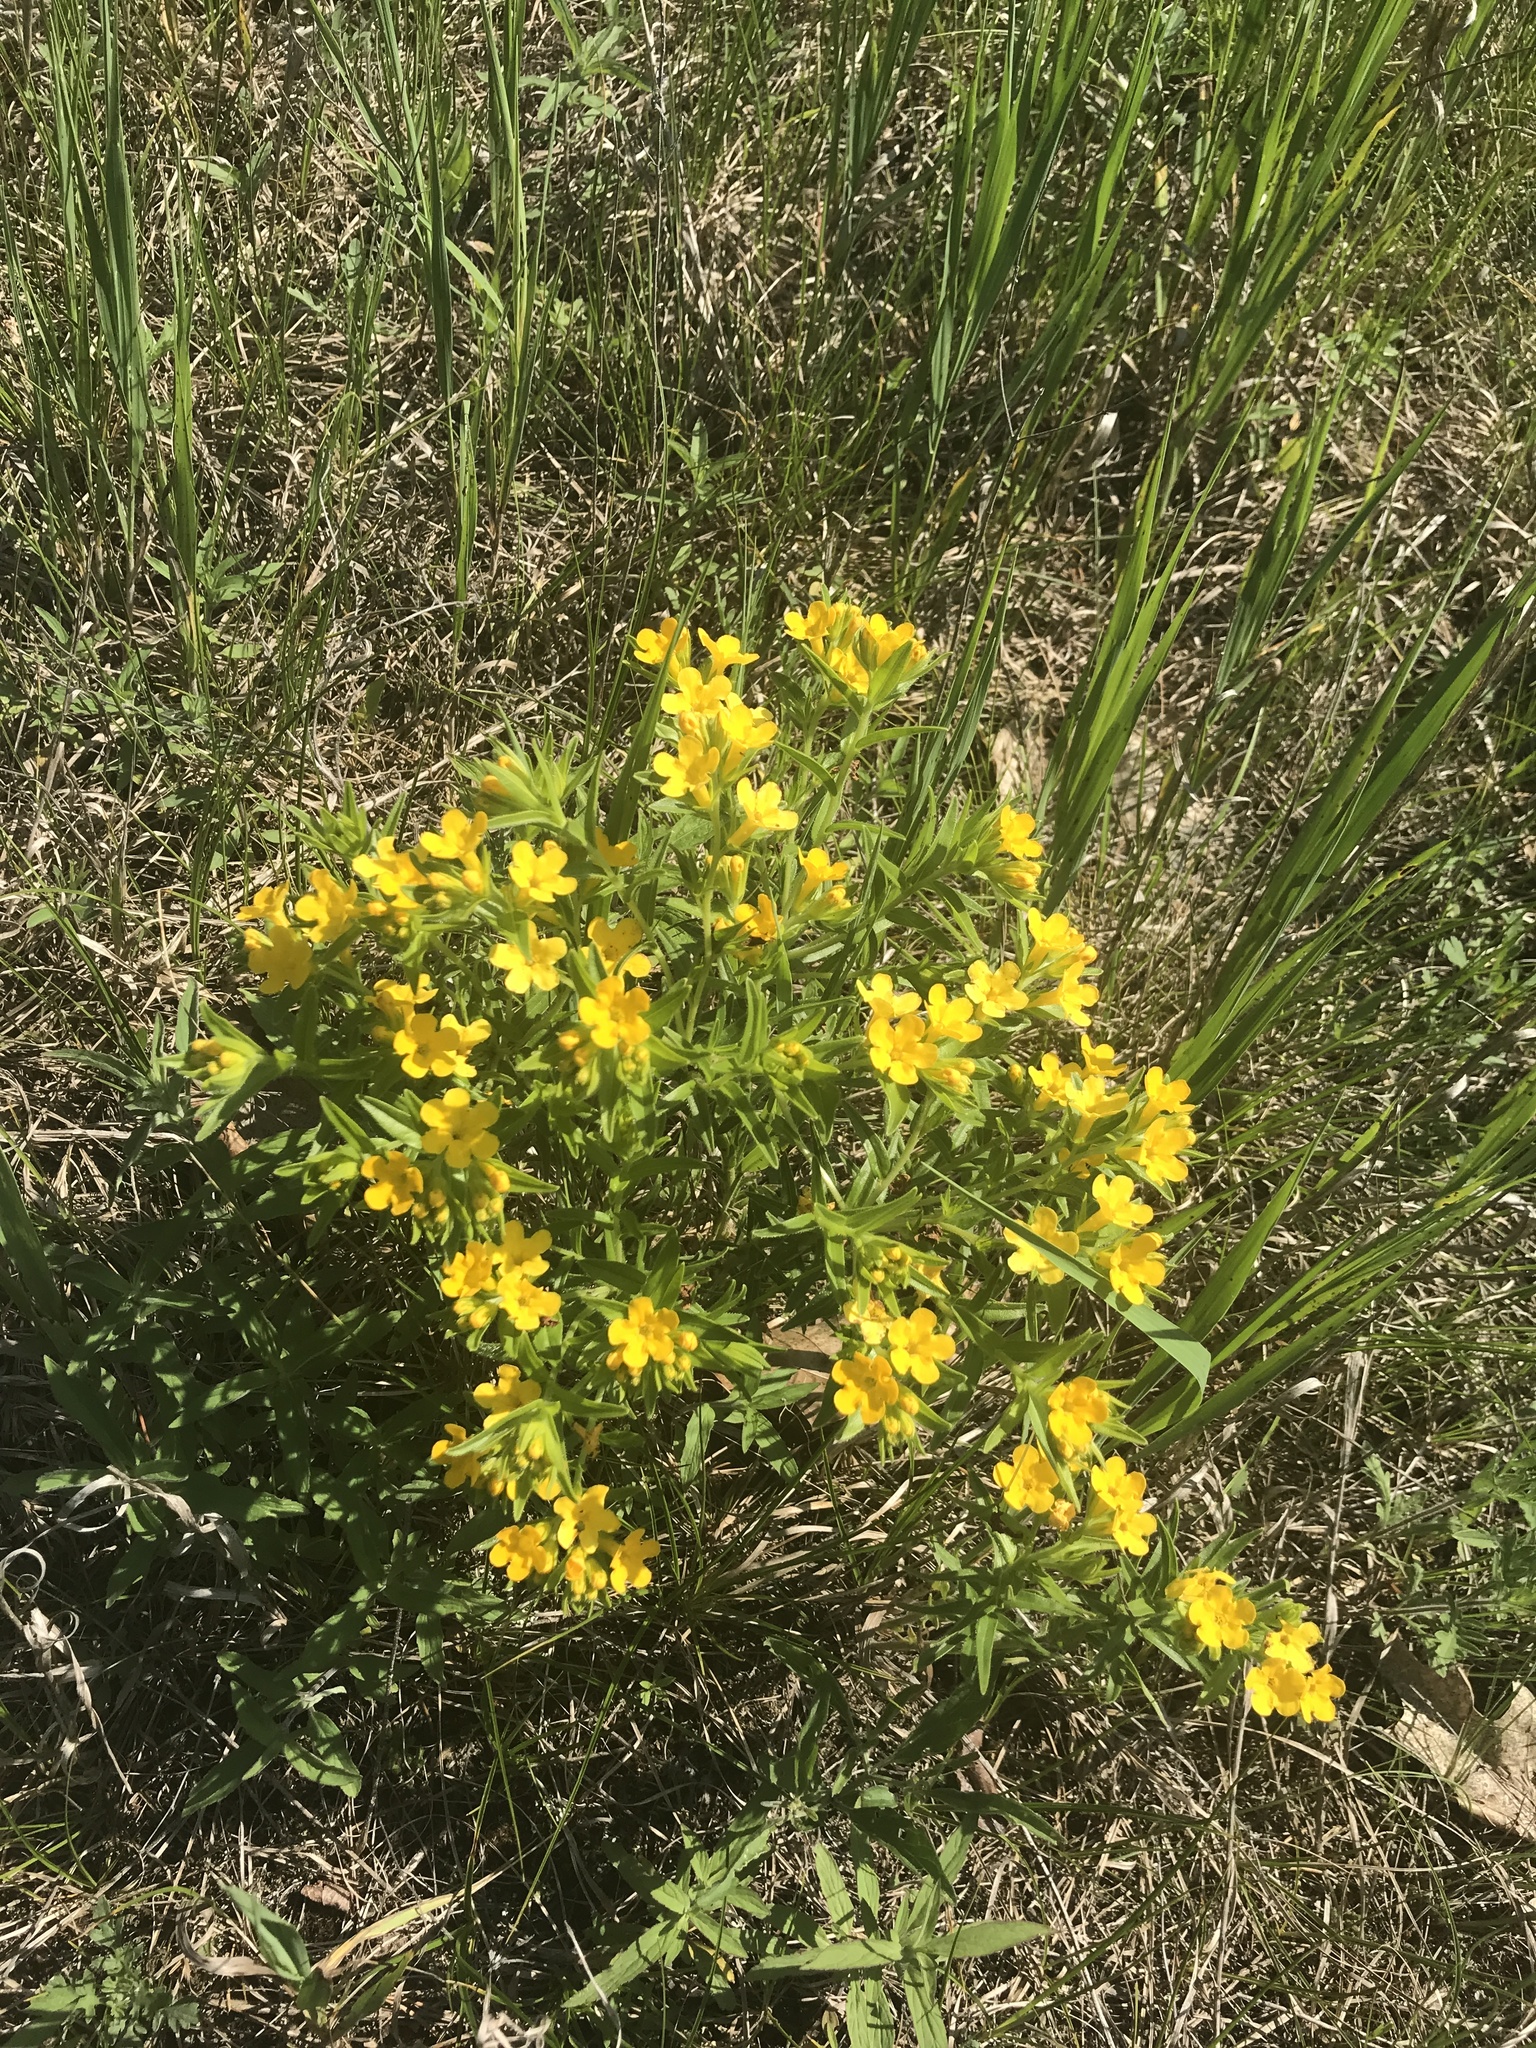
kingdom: Plantae
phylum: Tracheophyta
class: Magnoliopsida
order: Boraginales
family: Boraginaceae
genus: Lithospermum
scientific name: Lithospermum caroliniense
